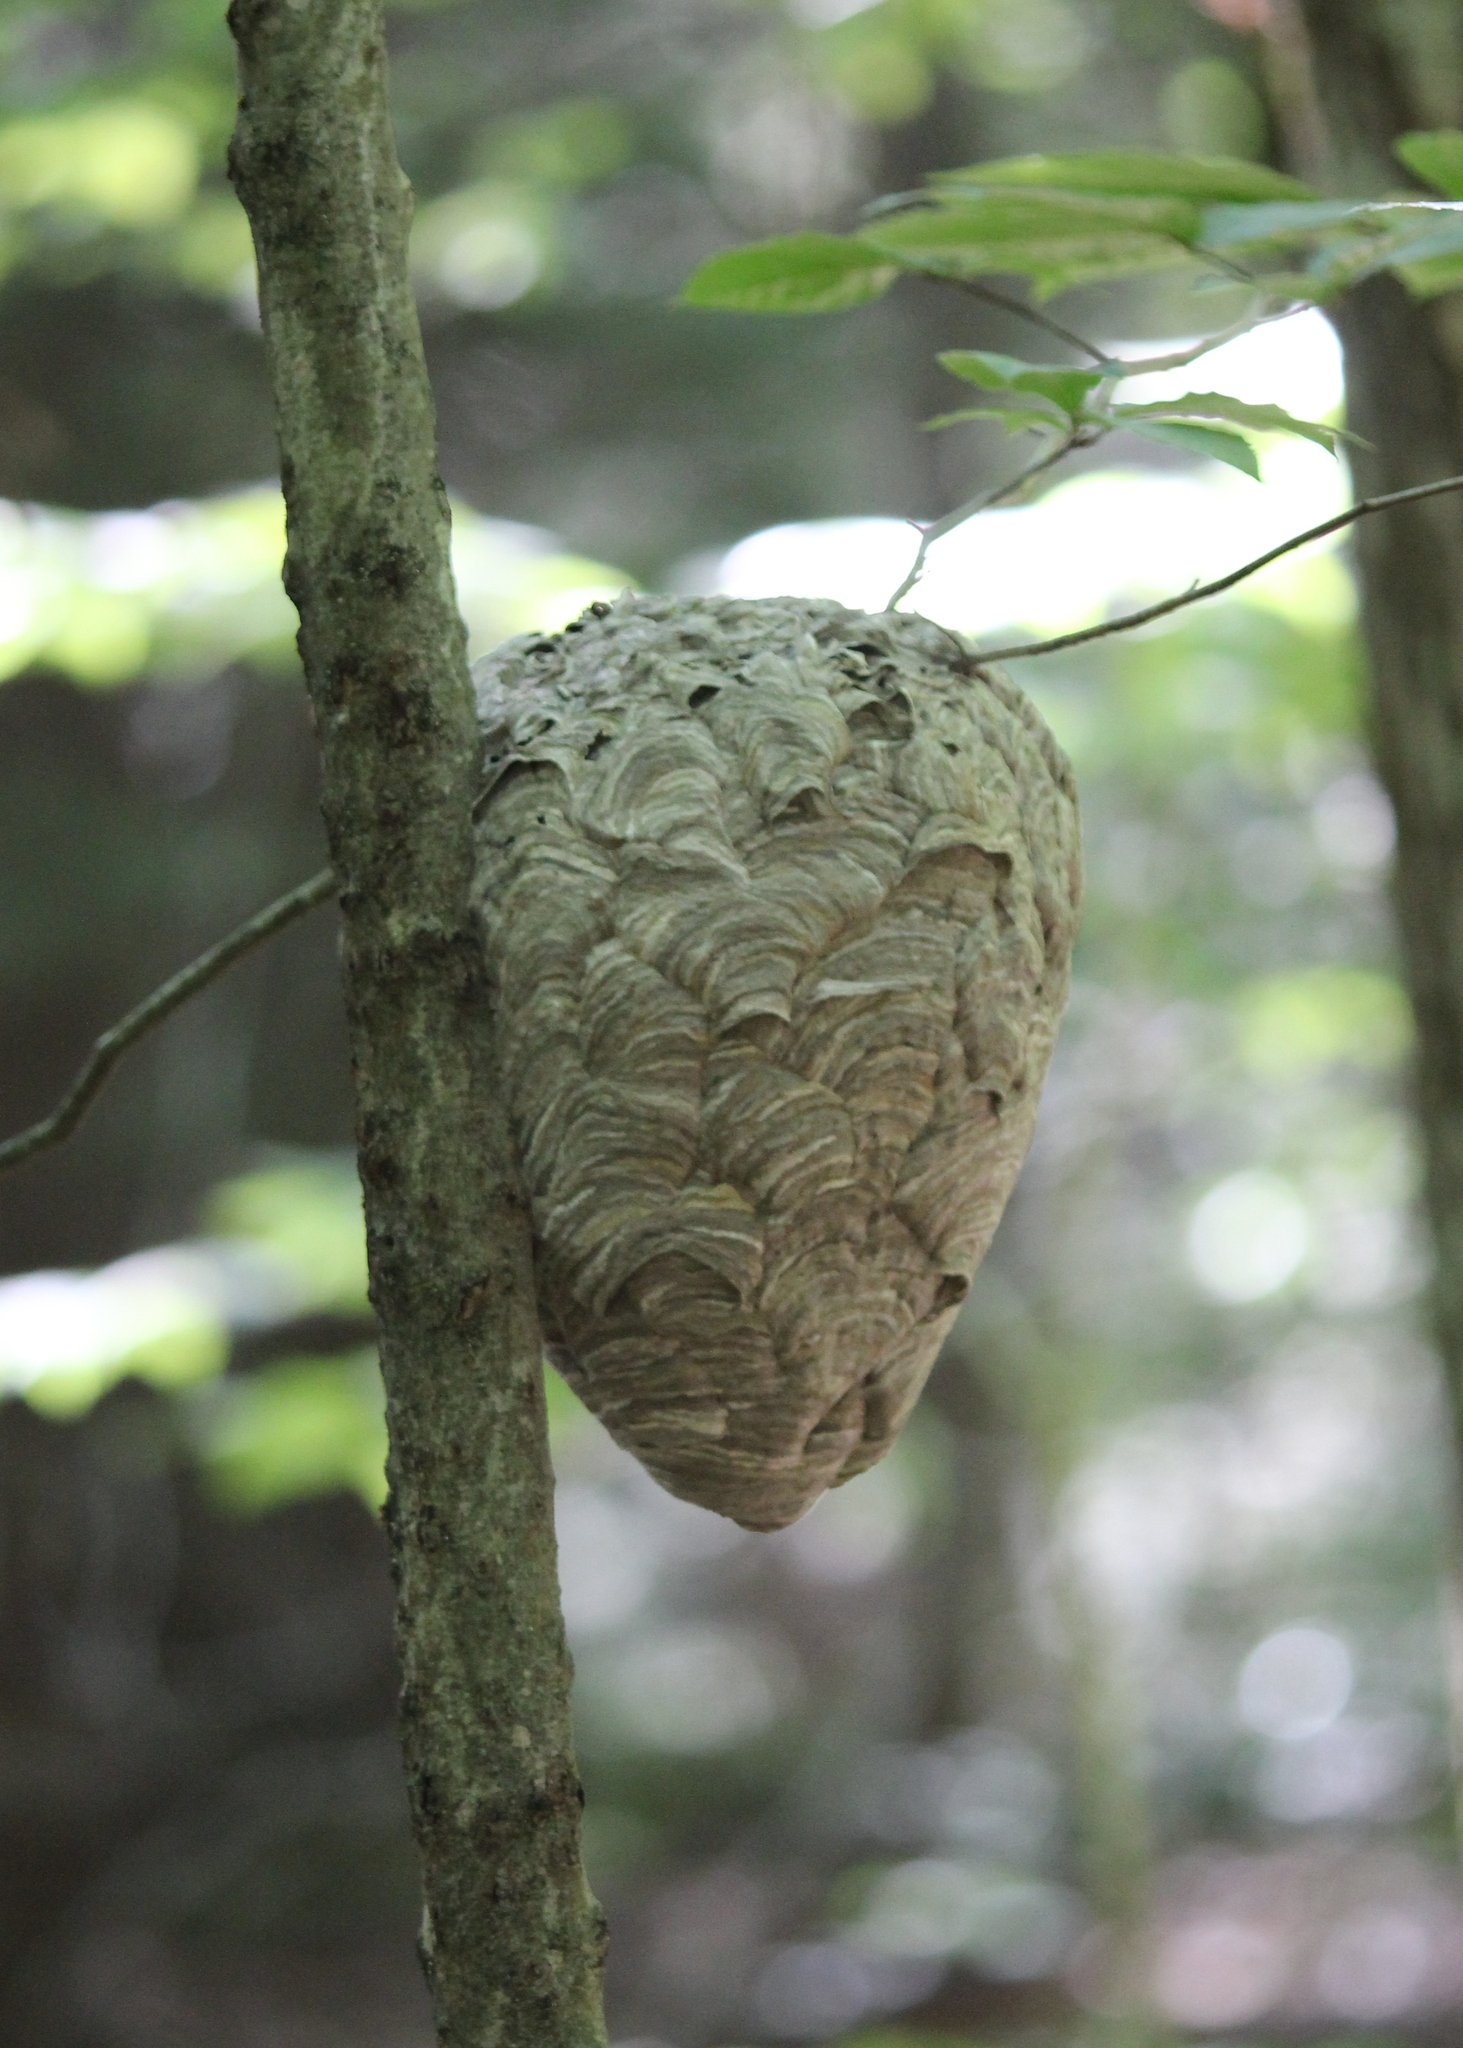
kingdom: Animalia
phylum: Arthropoda
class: Insecta
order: Hymenoptera
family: Vespidae
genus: Dolichovespula
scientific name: Dolichovespula maculata
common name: Bald-faced hornet
